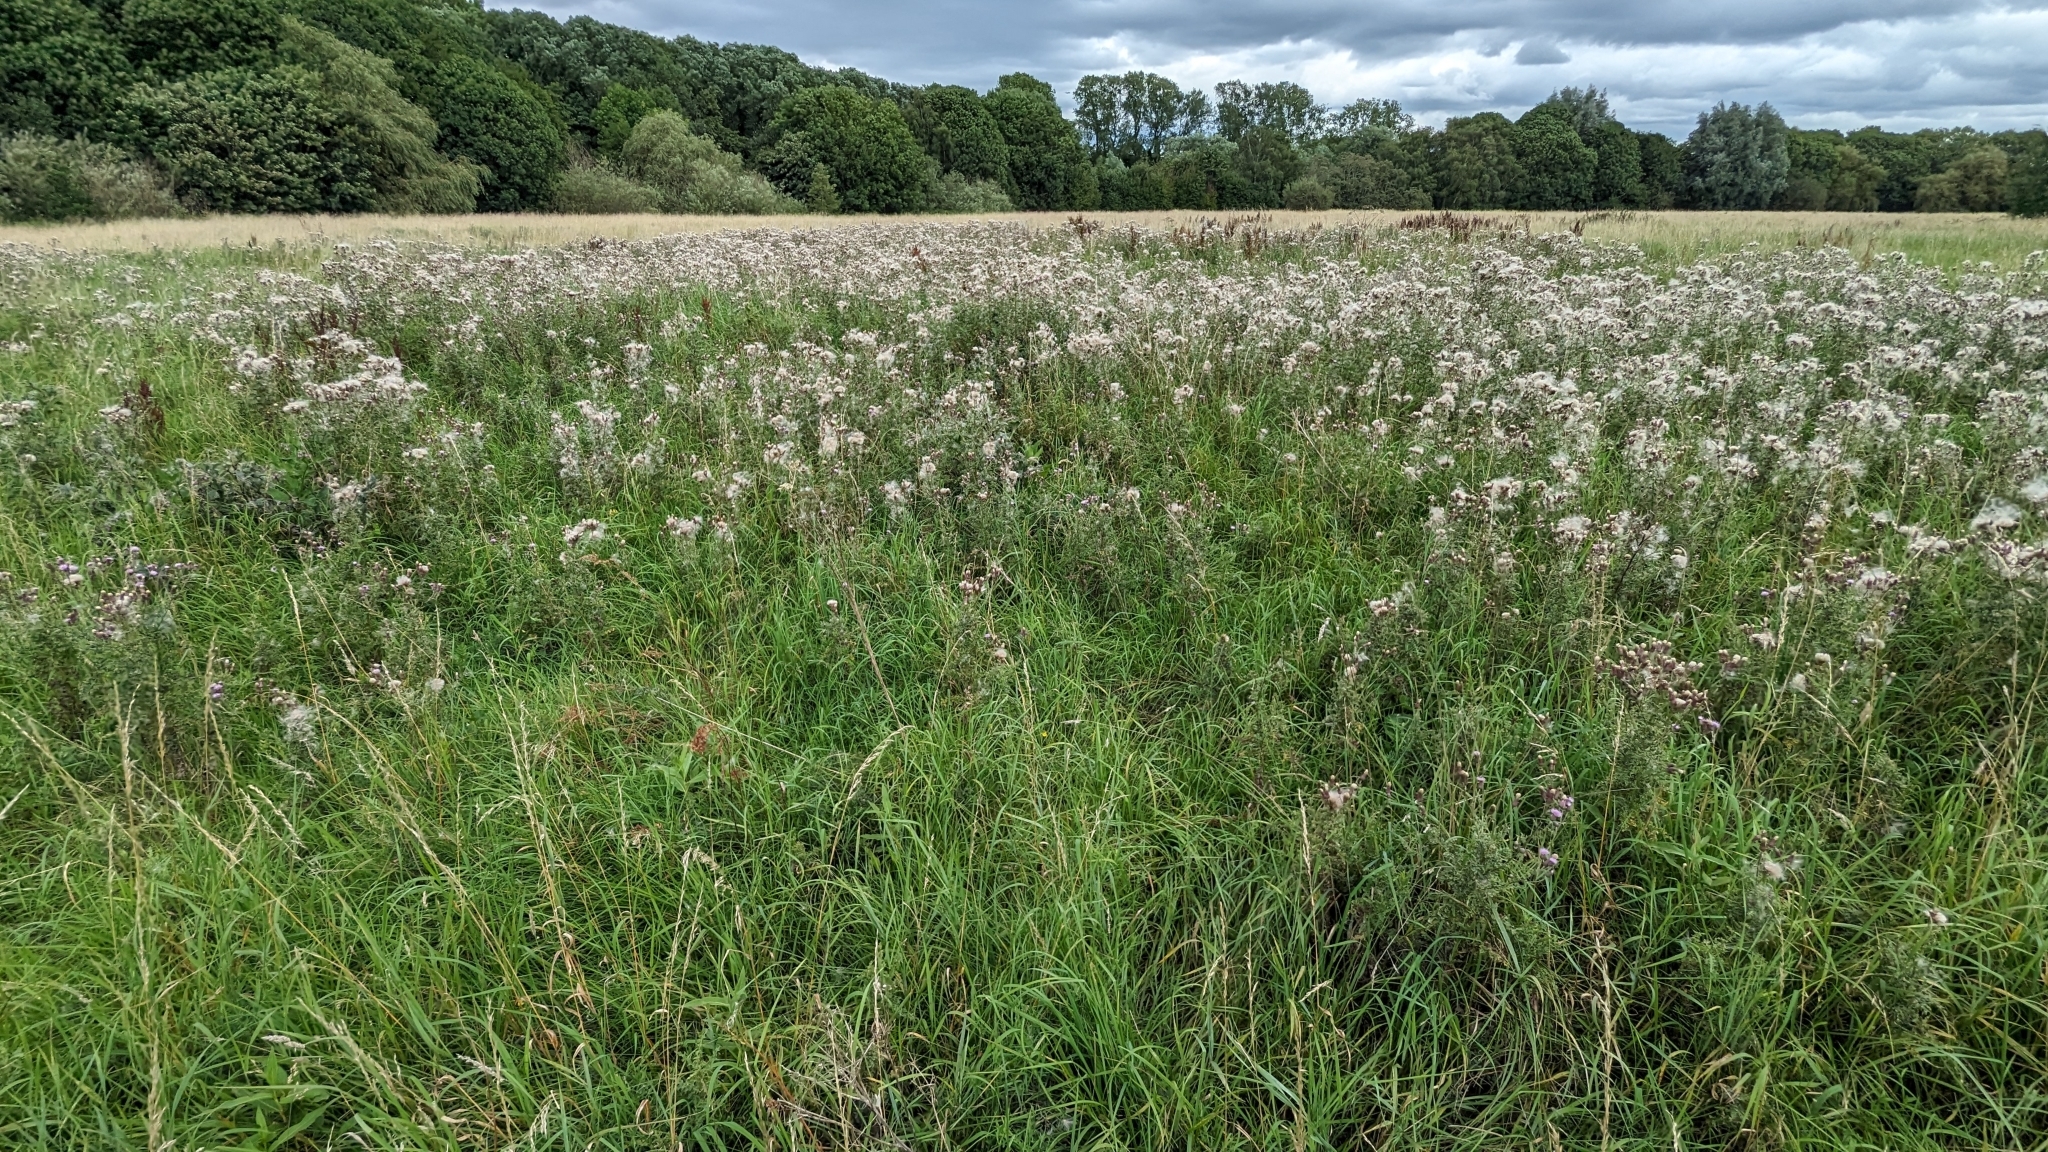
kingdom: Plantae
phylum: Tracheophyta
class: Magnoliopsida
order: Asterales
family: Asteraceae
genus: Cirsium
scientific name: Cirsium arvense
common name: Creeping thistle
